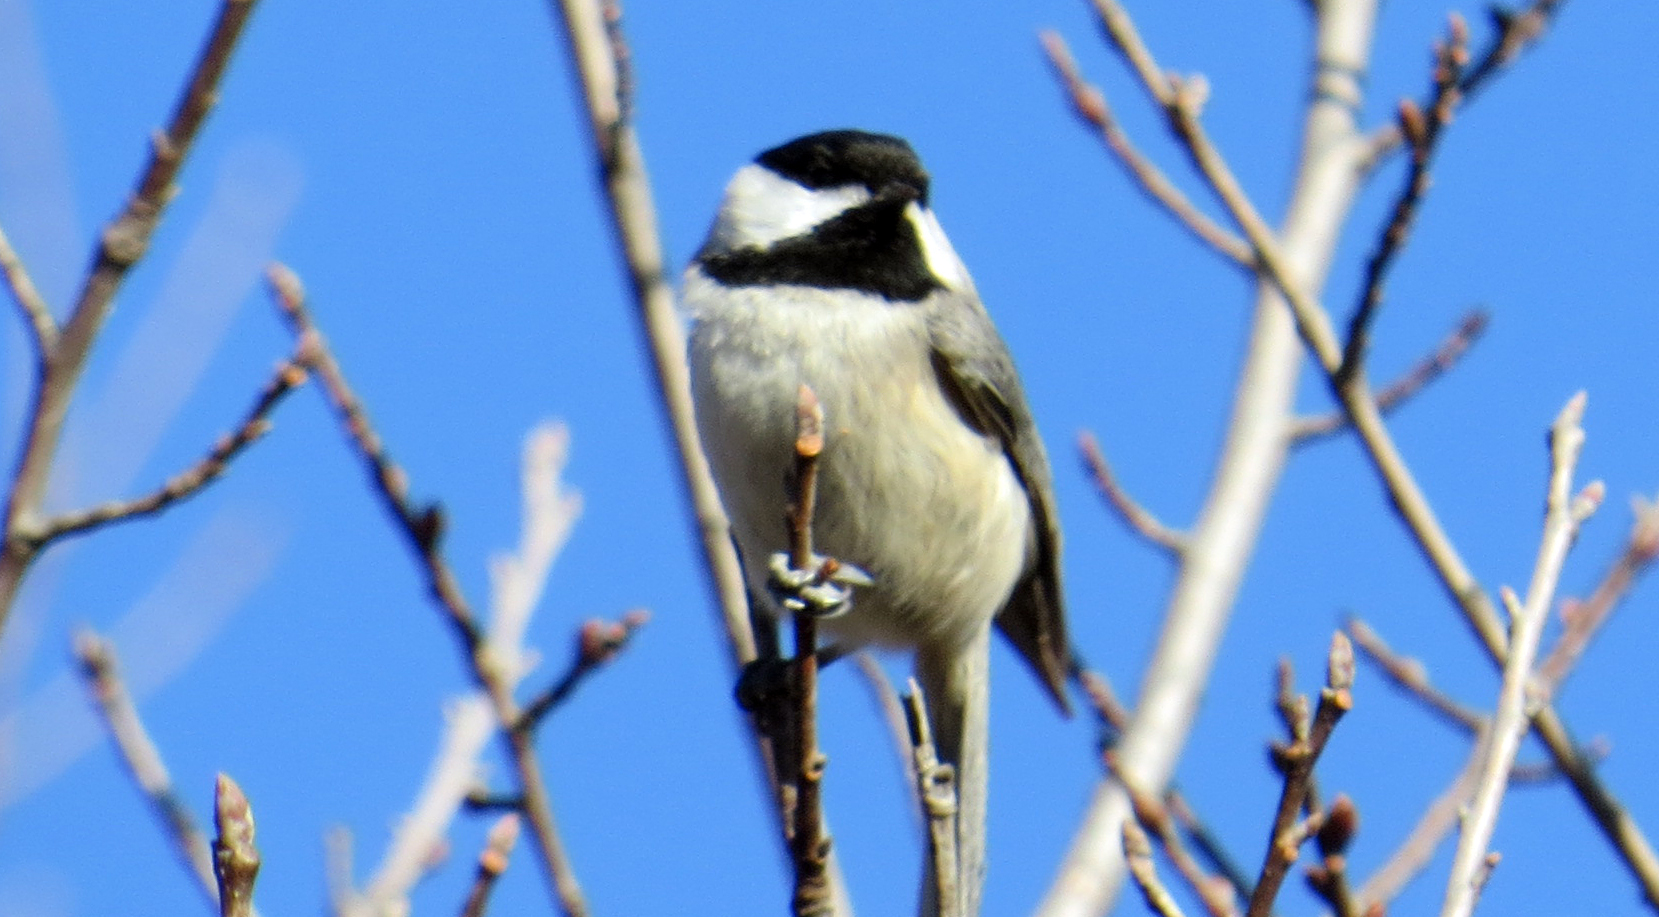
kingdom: Animalia
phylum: Chordata
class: Aves
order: Passeriformes
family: Paridae
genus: Poecile
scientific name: Poecile carolinensis
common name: Carolina chickadee
